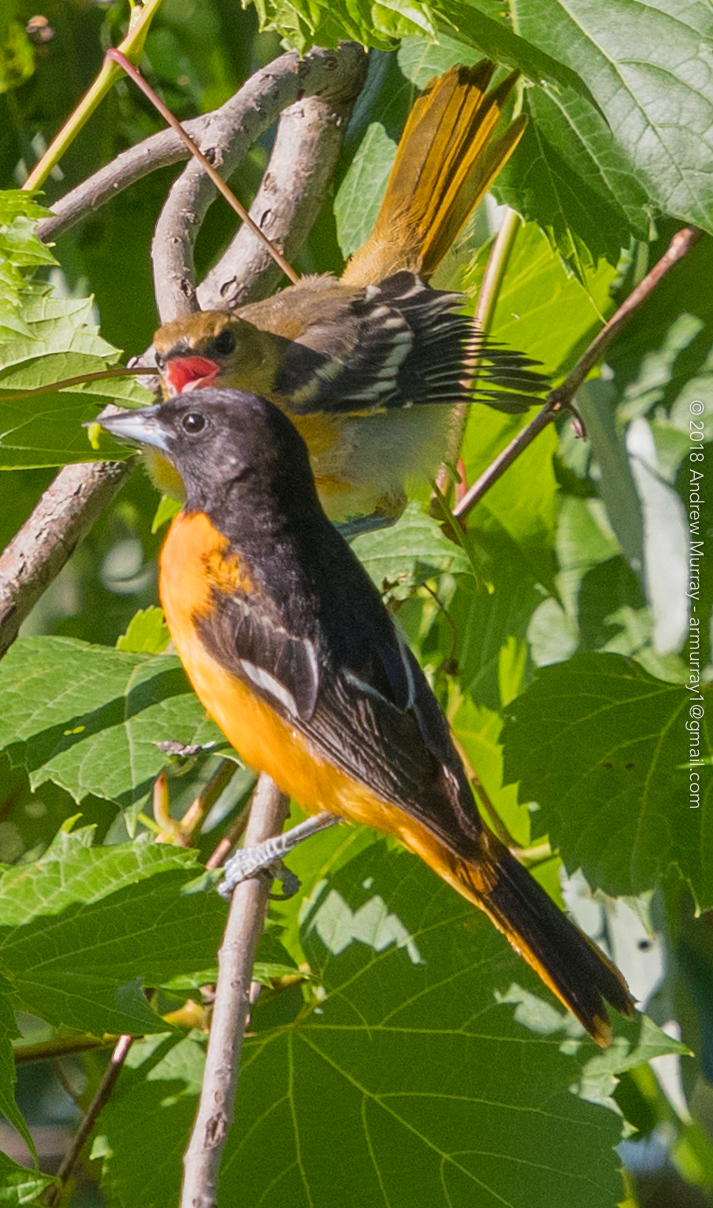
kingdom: Animalia
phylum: Chordata
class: Aves
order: Passeriformes
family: Icteridae
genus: Icterus
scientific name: Icterus galbula
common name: Baltimore oriole
